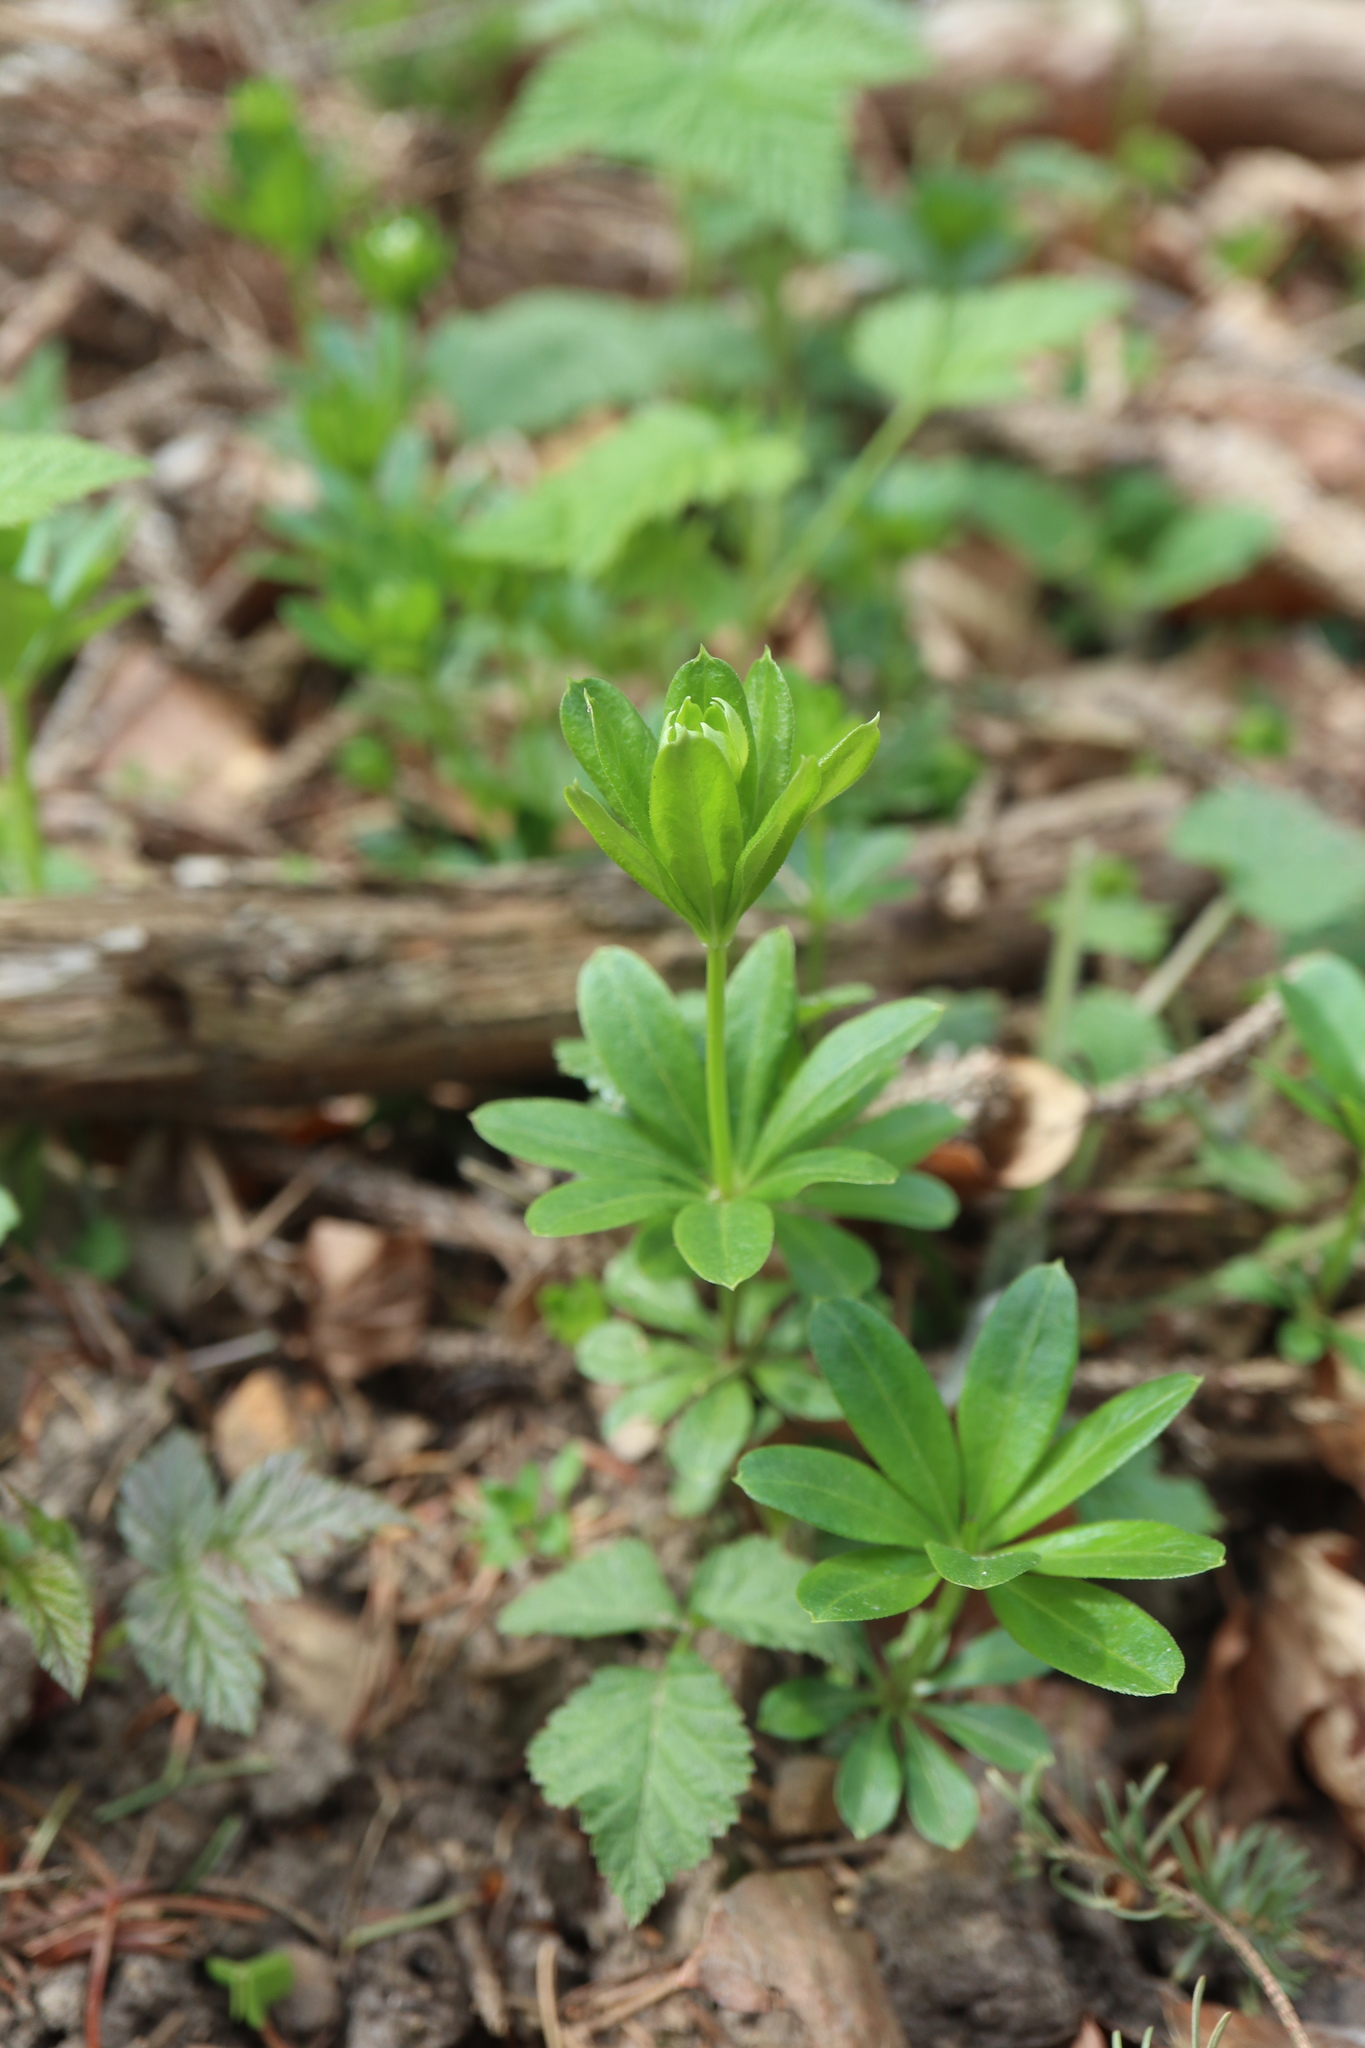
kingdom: Plantae
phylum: Tracheophyta
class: Magnoliopsida
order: Gentianales
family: Rubiaceae
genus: Galium
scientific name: Galium odoratum
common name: Sweet woodruff
